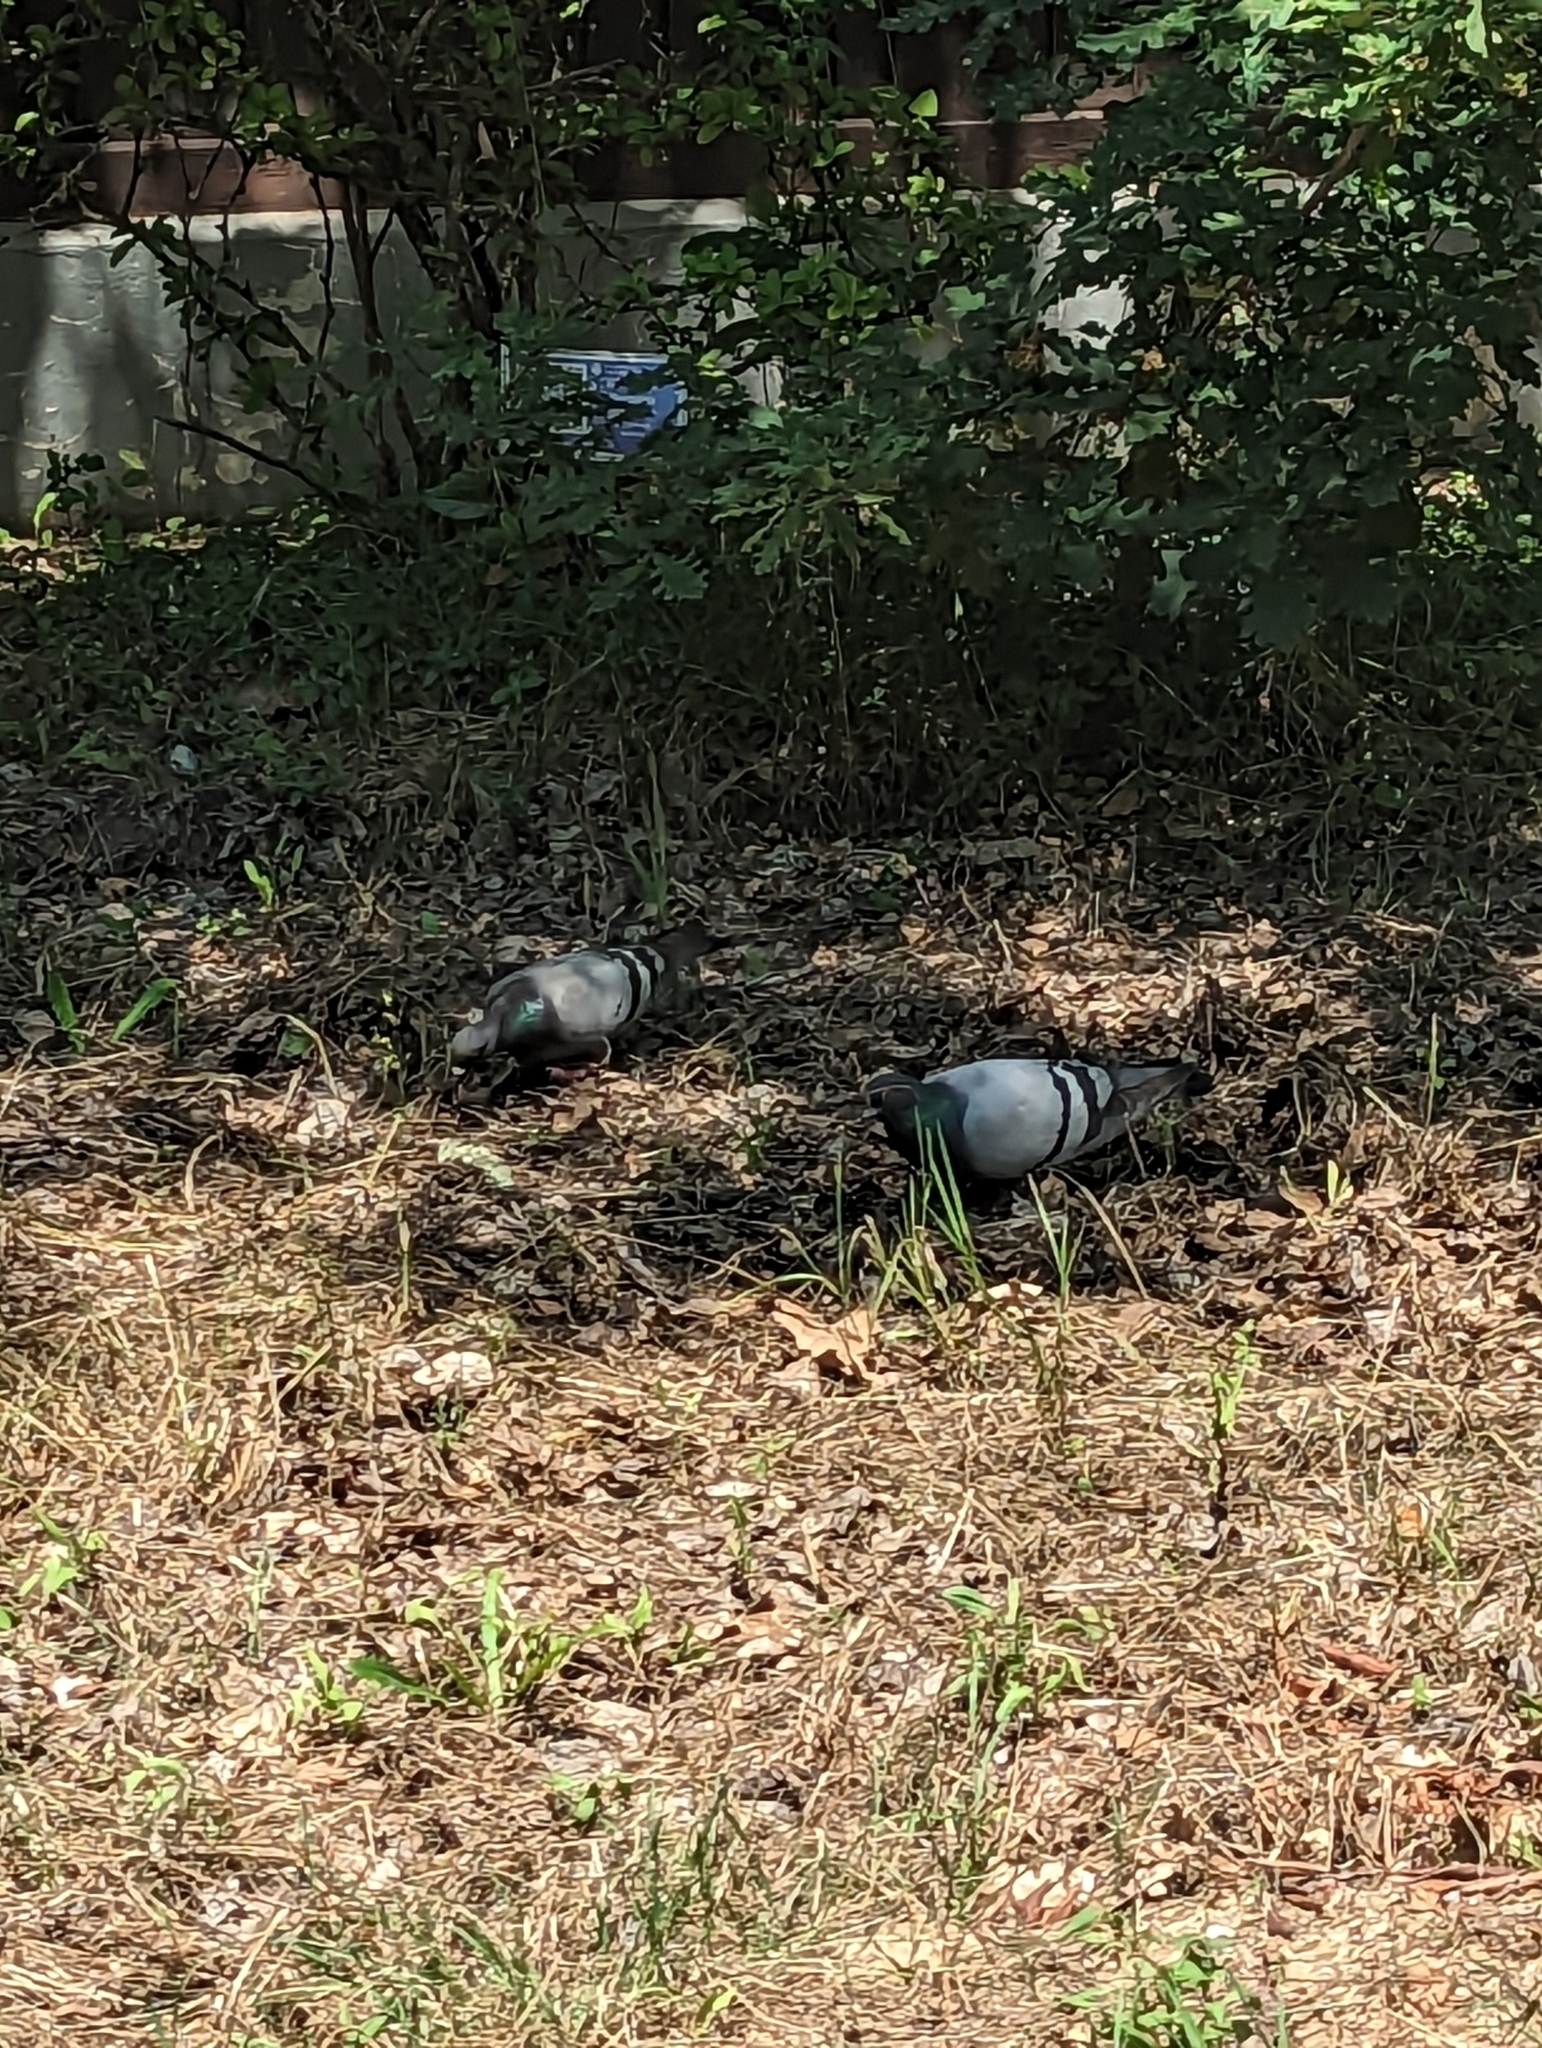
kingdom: Animalia
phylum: Chordata
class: Aves
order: Columbiformes
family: Columbidae
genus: Columba
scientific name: Columba livia
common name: Rock pigeon
